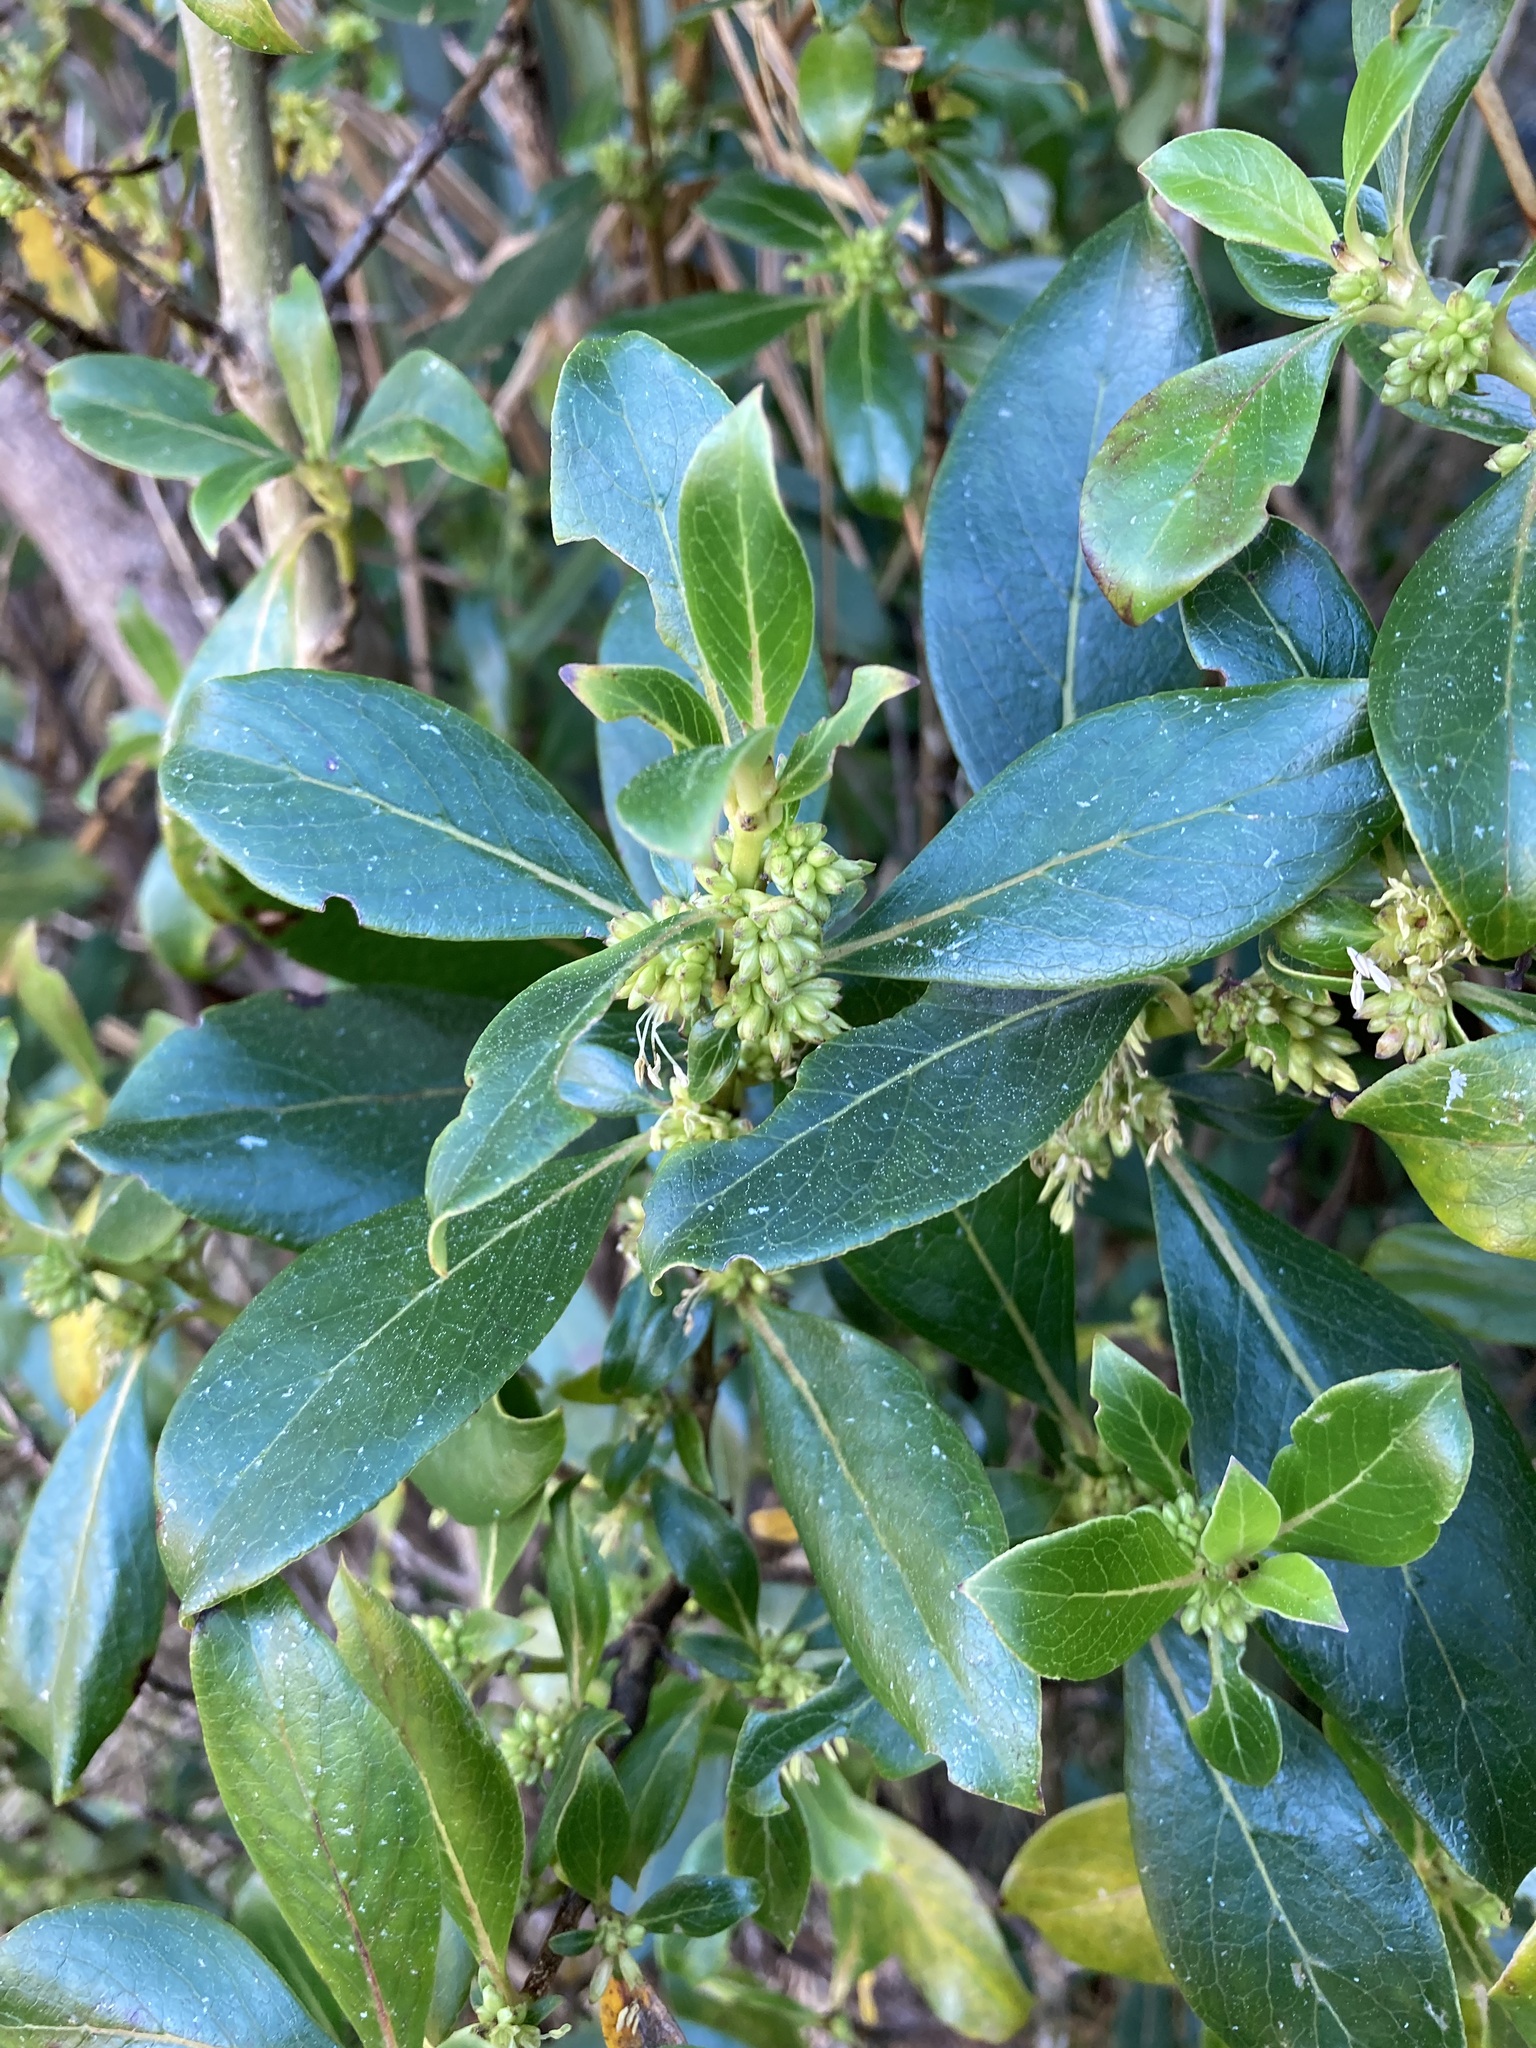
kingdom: Plantae
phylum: Tracheophyta
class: Magnoliopsida
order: Gentianales
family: Rubiaceae
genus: Coprosma
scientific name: Coprosma robusta
